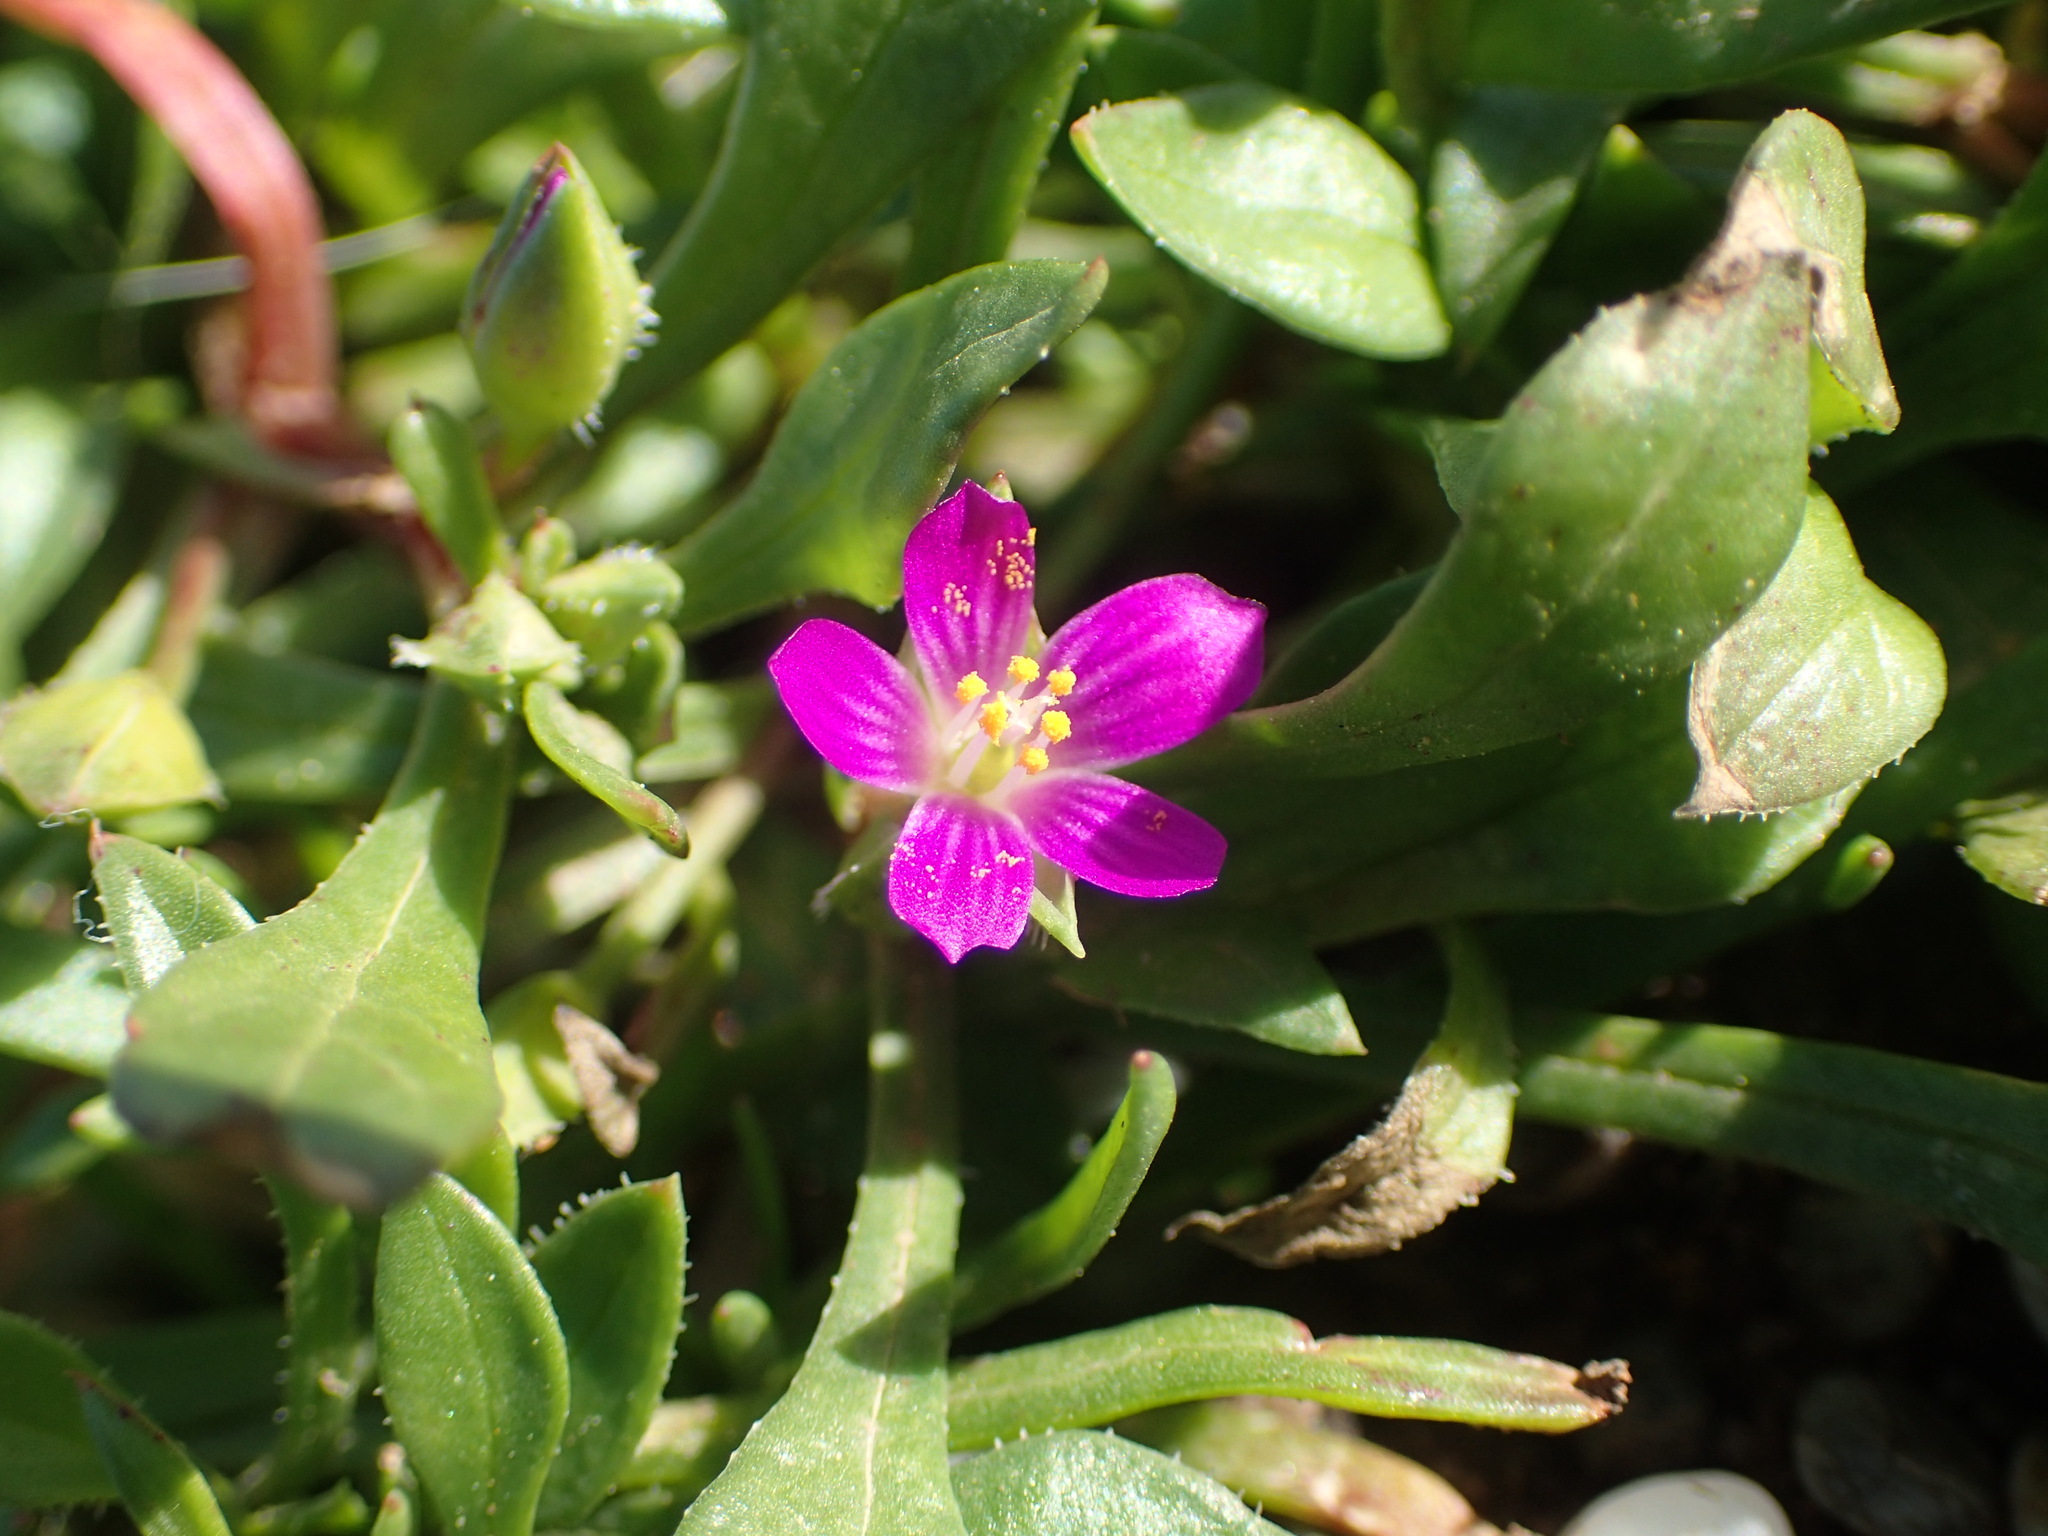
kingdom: Plantae
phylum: Tracheophyta
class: Magnoliopsida
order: Caryophyllales
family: Montiaceae
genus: Calandrinia
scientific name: Calandrinia menziesii
